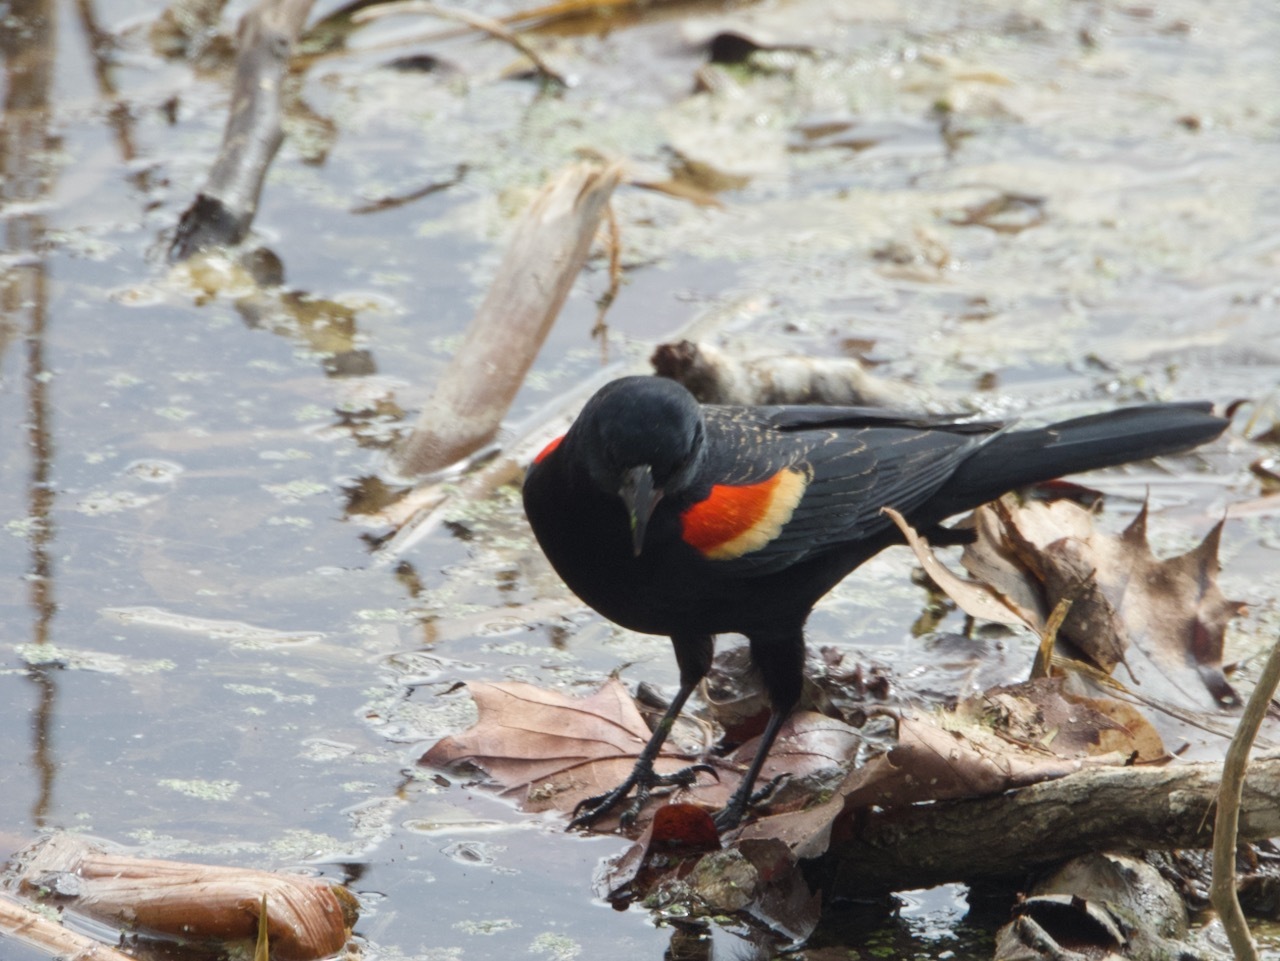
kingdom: Animalia
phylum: Chordata
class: Aves
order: Passeriformes
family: Icteridae
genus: Agelaius
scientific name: Agelaius phoeniceus
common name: Red-winged blackbird
